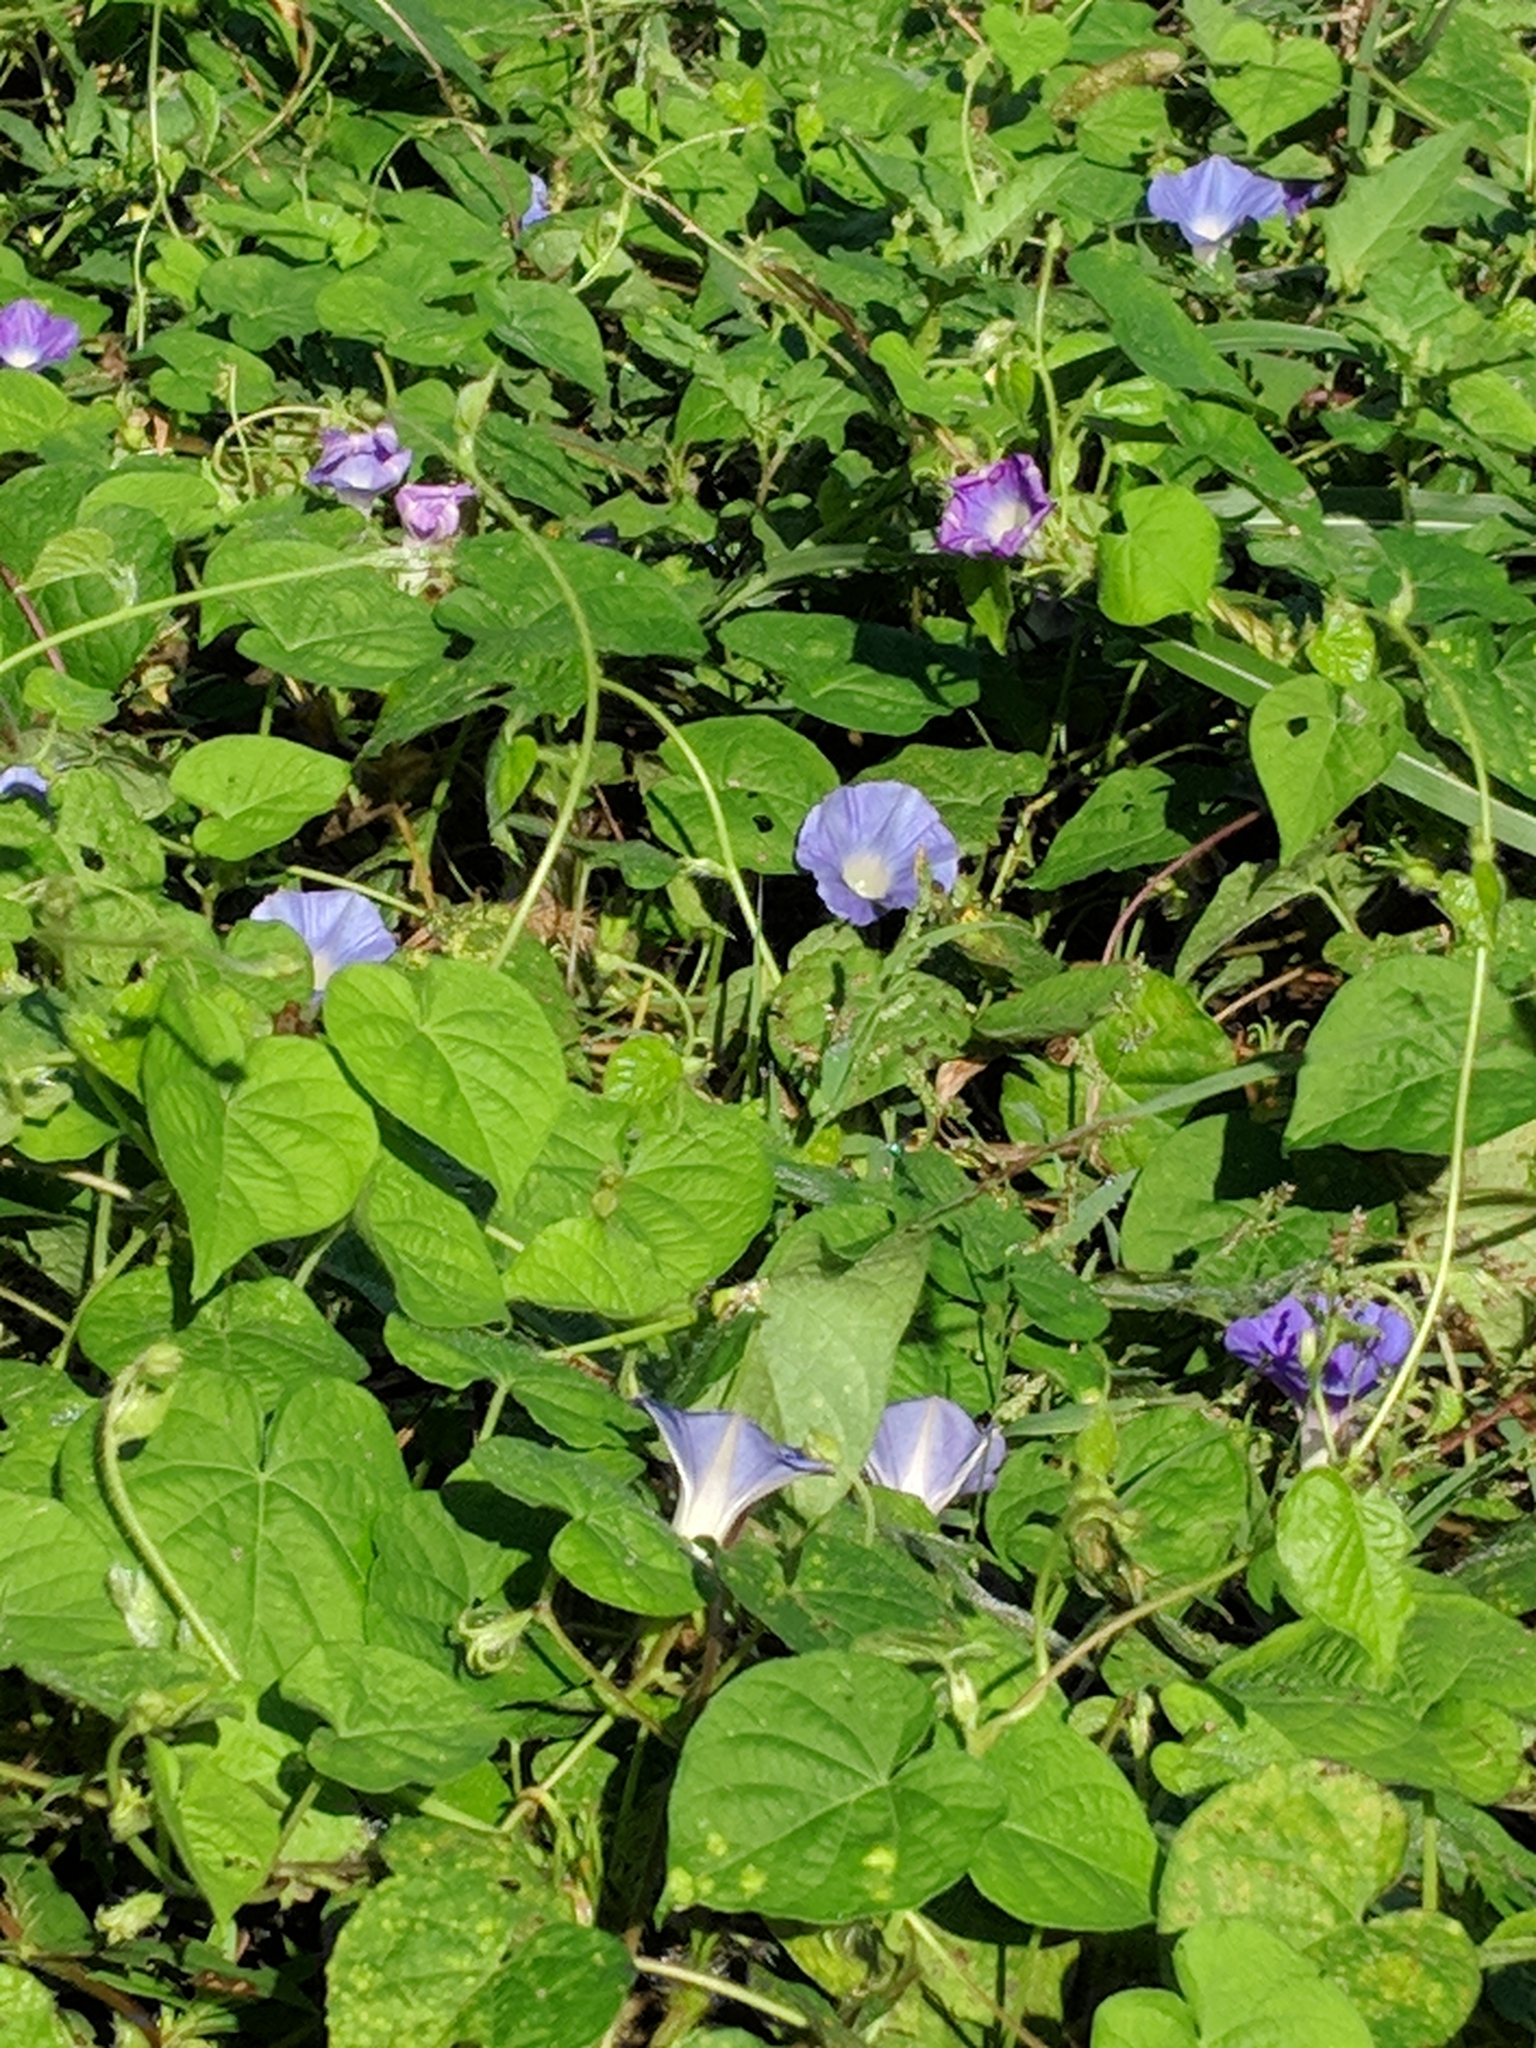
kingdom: Plantae
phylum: Tracheophyta
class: Magnoliopsida
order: Solanales
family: Convolvulaceae
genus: Ipomoea
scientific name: Ipomoea hederacea
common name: Ivy-leaved morning-glory
